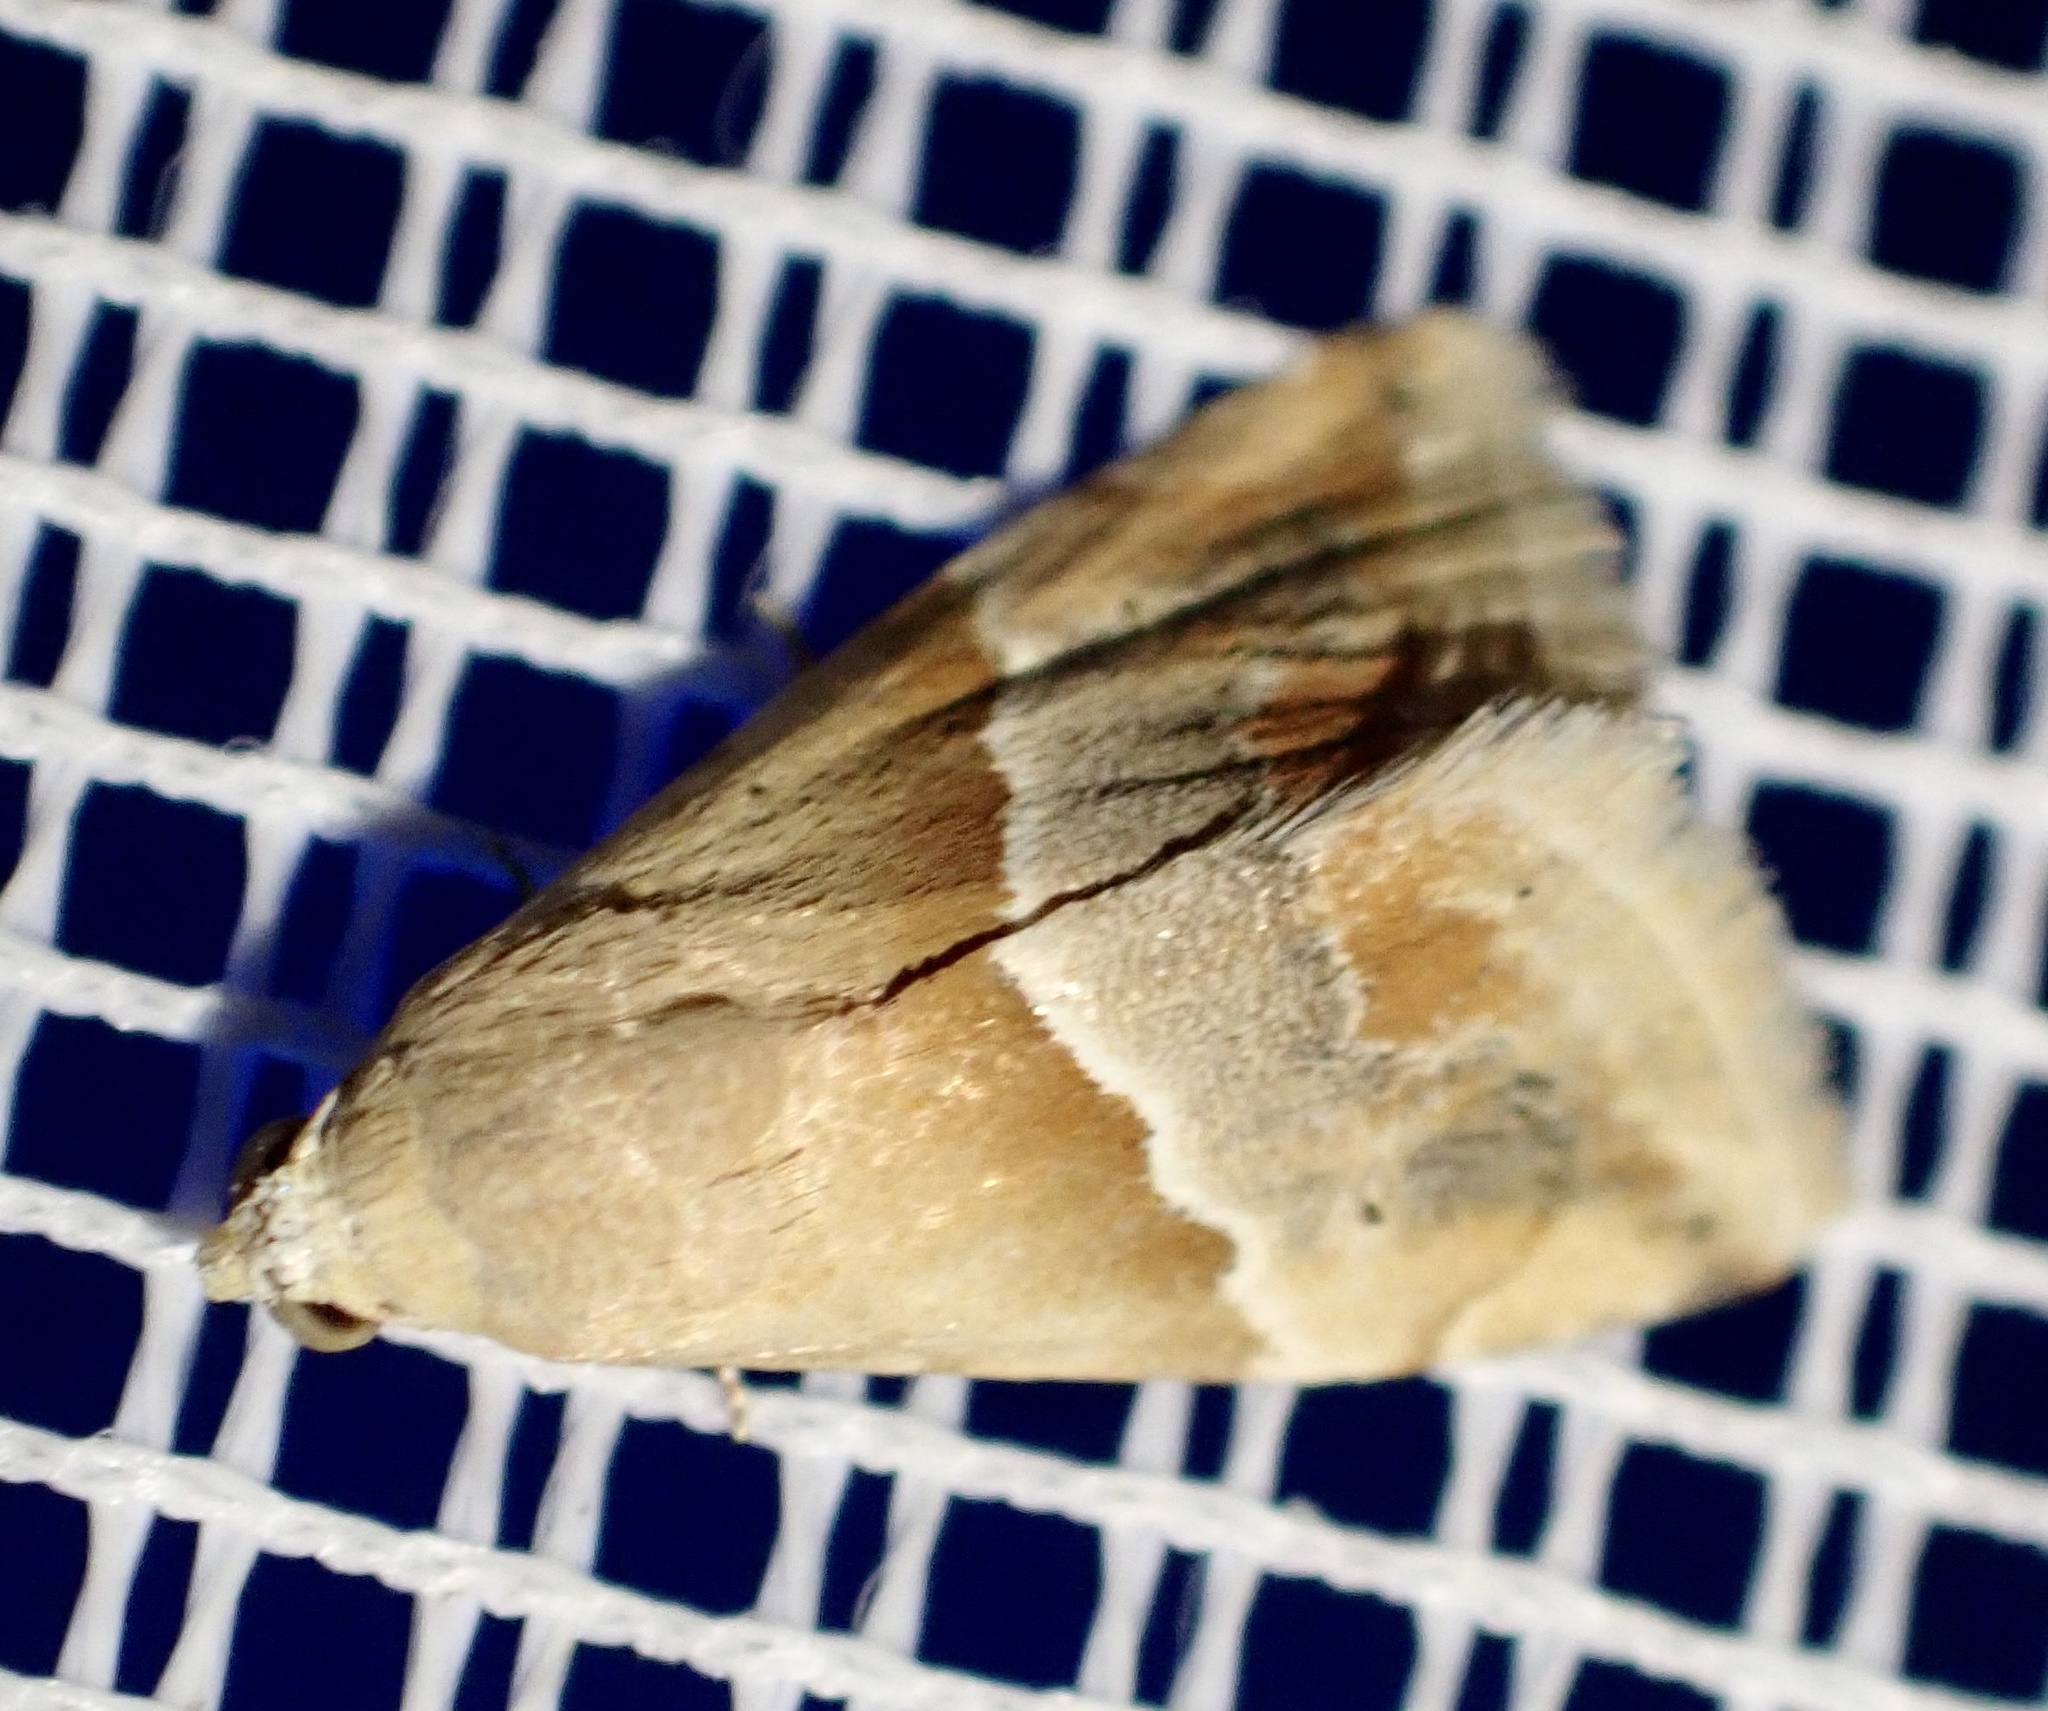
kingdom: Animalia
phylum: Arthropoda
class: Insecta
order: Lepidoptera
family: Noctuidae
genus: Eublemma
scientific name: Eublemma parva
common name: Small marbled
